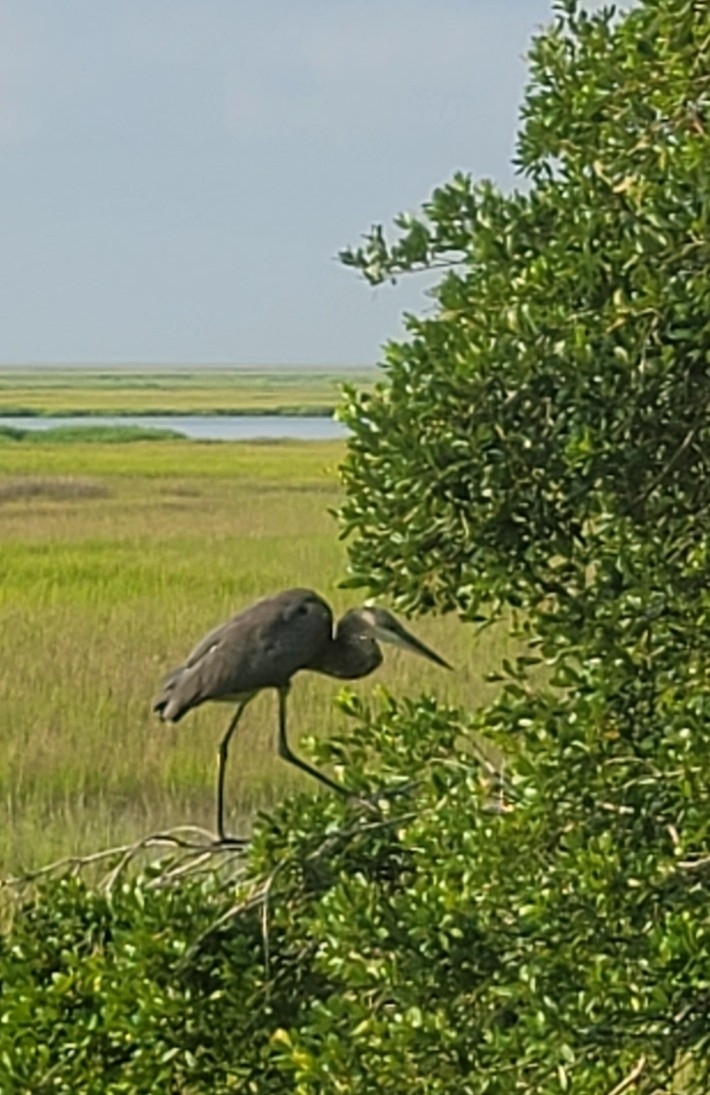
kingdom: Animalia
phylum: Chordata
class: Aves
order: Pelecaniformes
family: Ardeidae
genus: Ardea
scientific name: Ardea herodias
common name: Great blue heron
